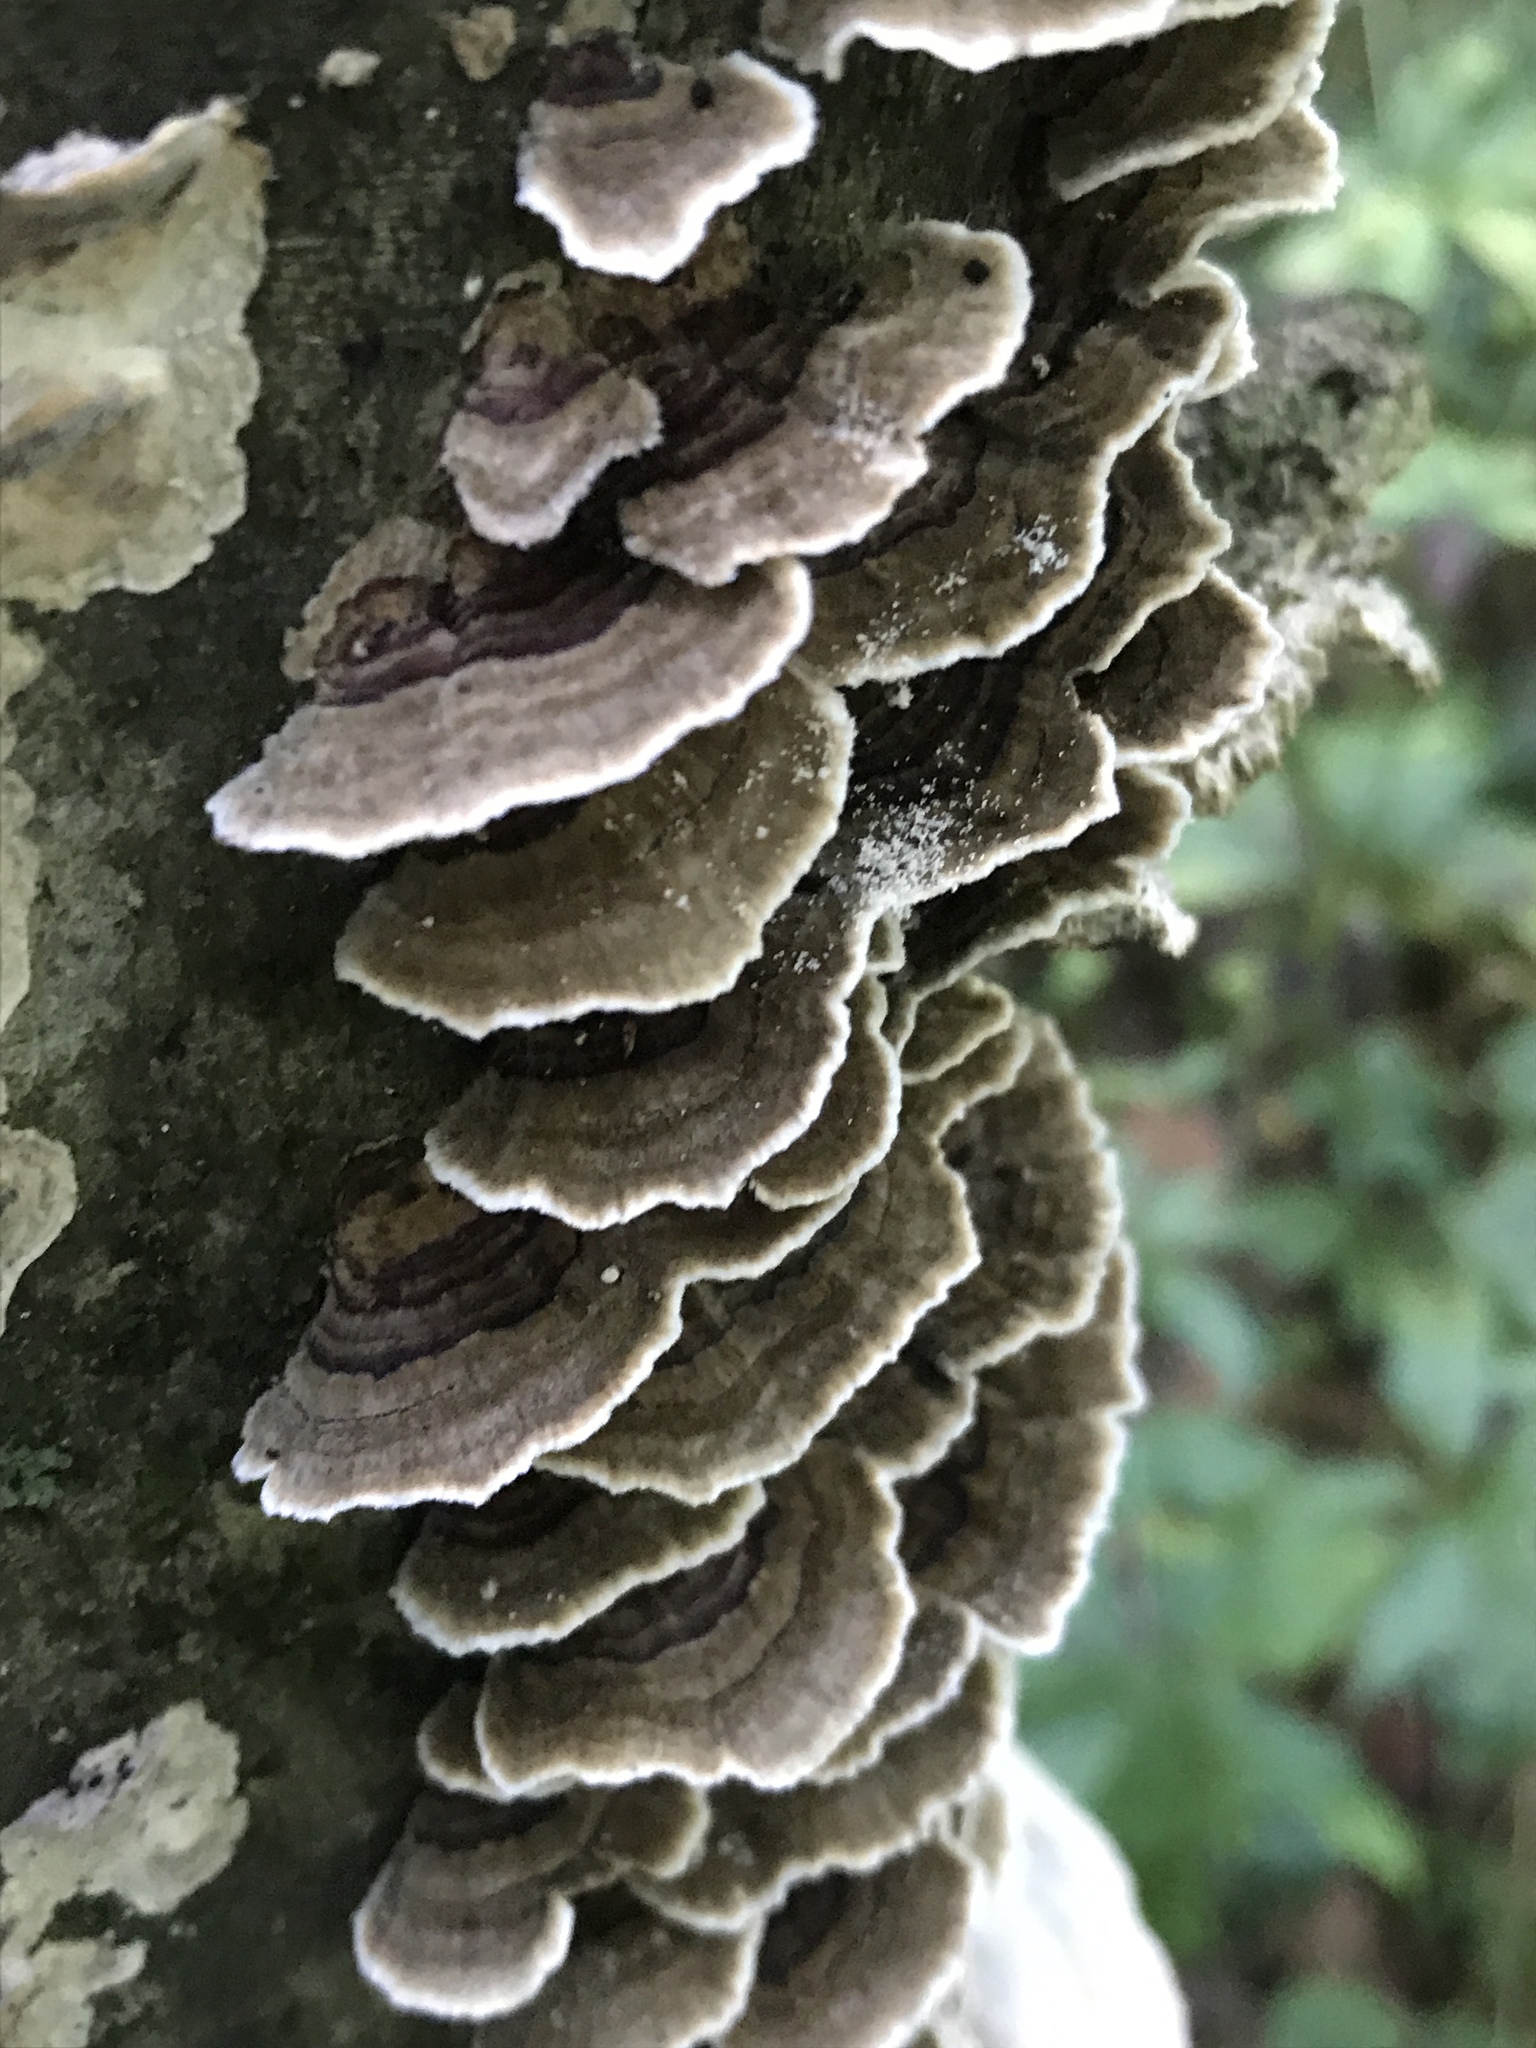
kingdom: Fungi
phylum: Basidiomycota
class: Agaricomycetes
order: Polyporales
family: Polyporaceae
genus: Trametes
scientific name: Trametes versicolor
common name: Turkeytail
